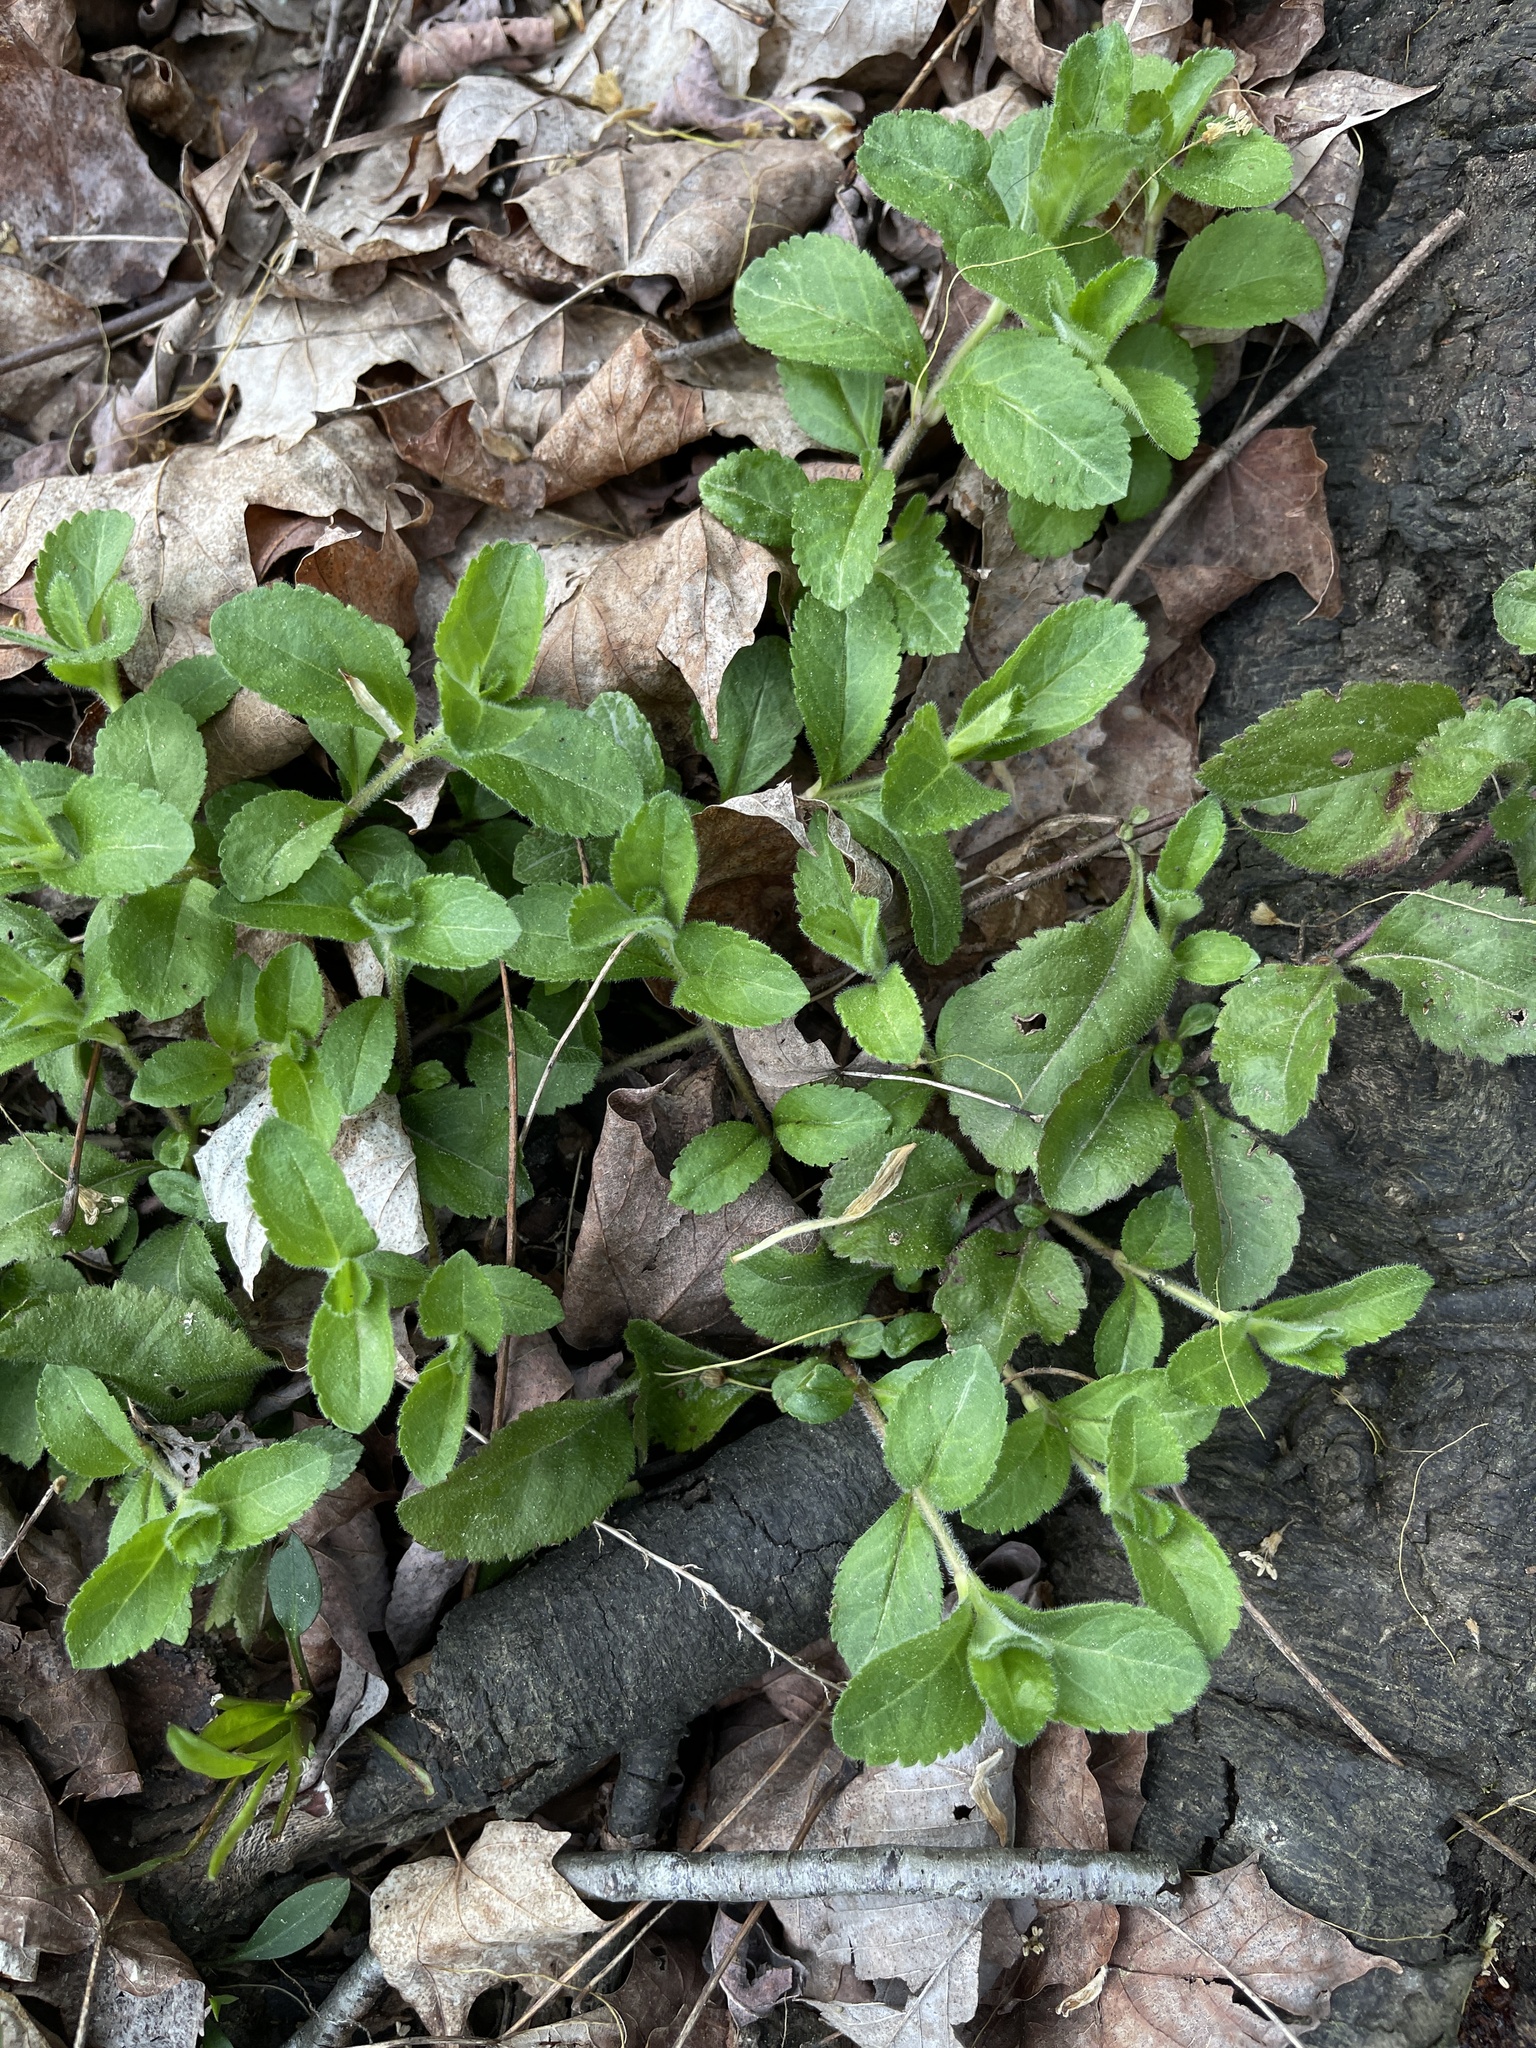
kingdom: Plantae
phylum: Tracheophyta
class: Magnoliopsida
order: Lamiales
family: Plantaginaceae
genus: Veronica
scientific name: Veronica officinalis
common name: Common speedwell
